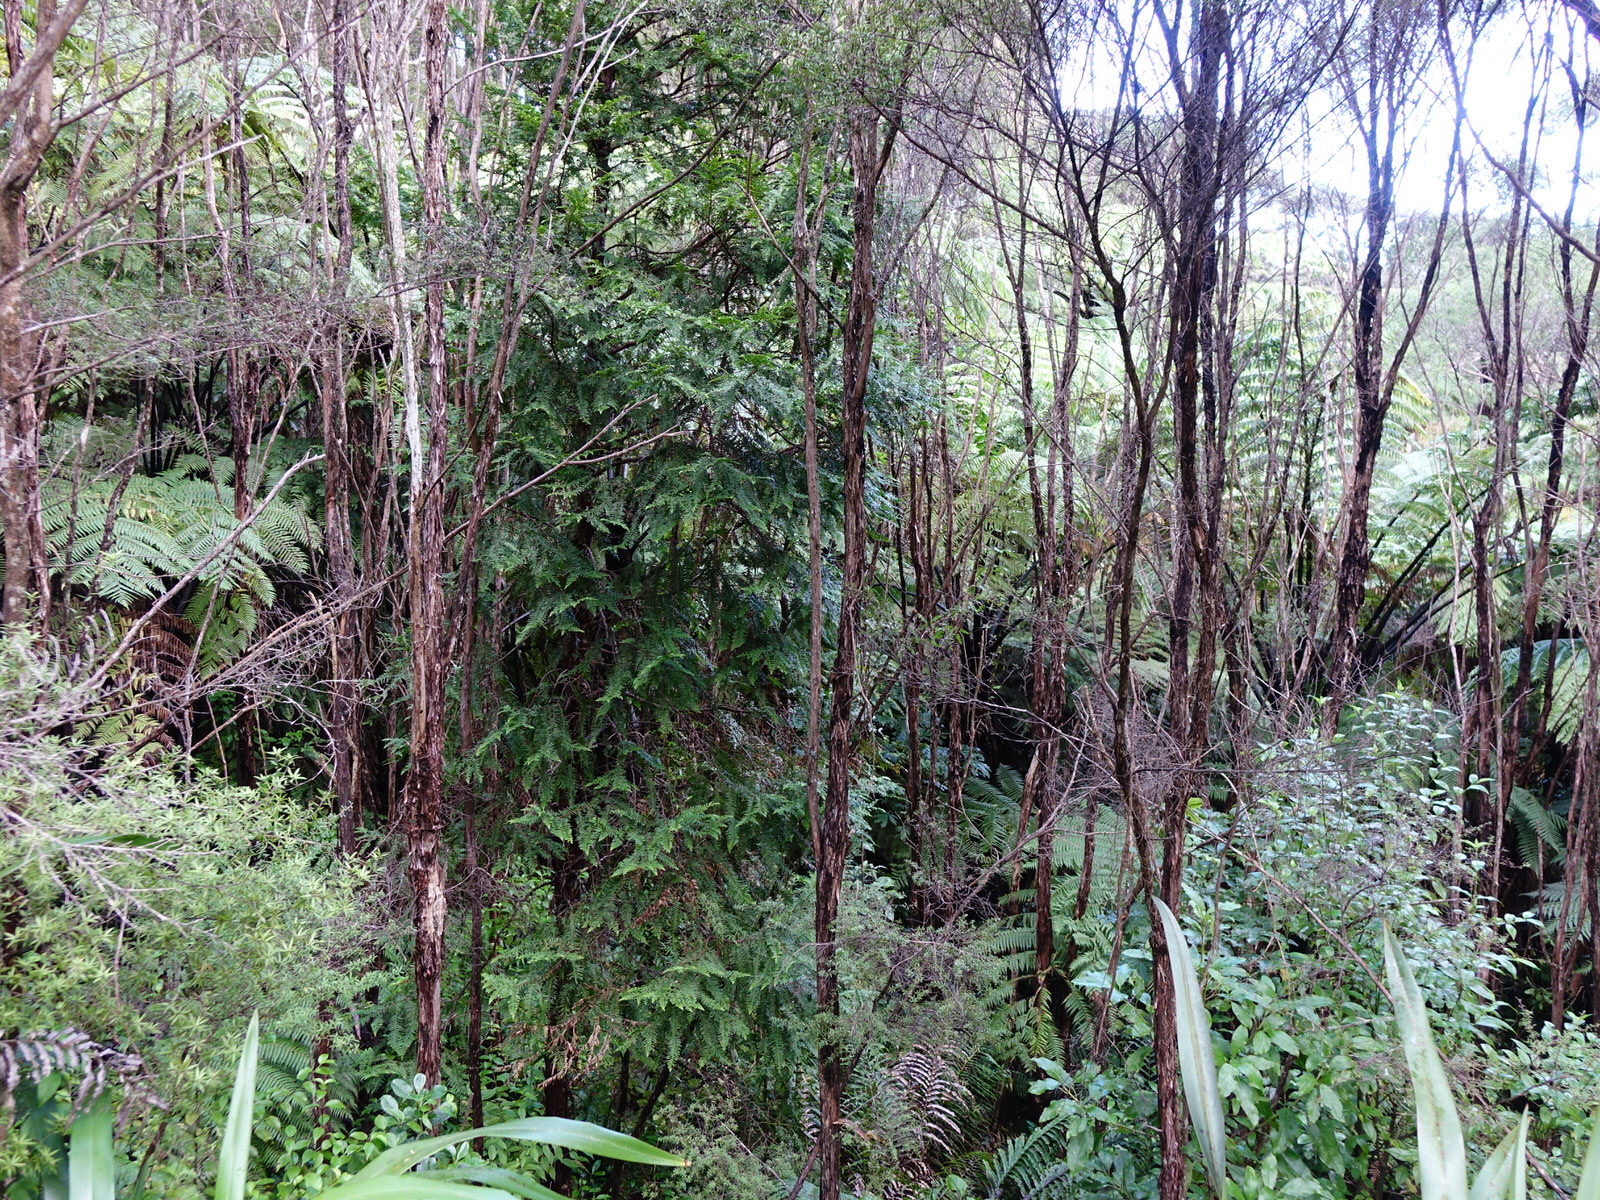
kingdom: Plantae
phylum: Tracheophyta
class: Pinopsida
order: Pinales
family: Cupressaceae
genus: Libocedrus
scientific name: Libocedrus plumosa
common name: New zealand cedar
